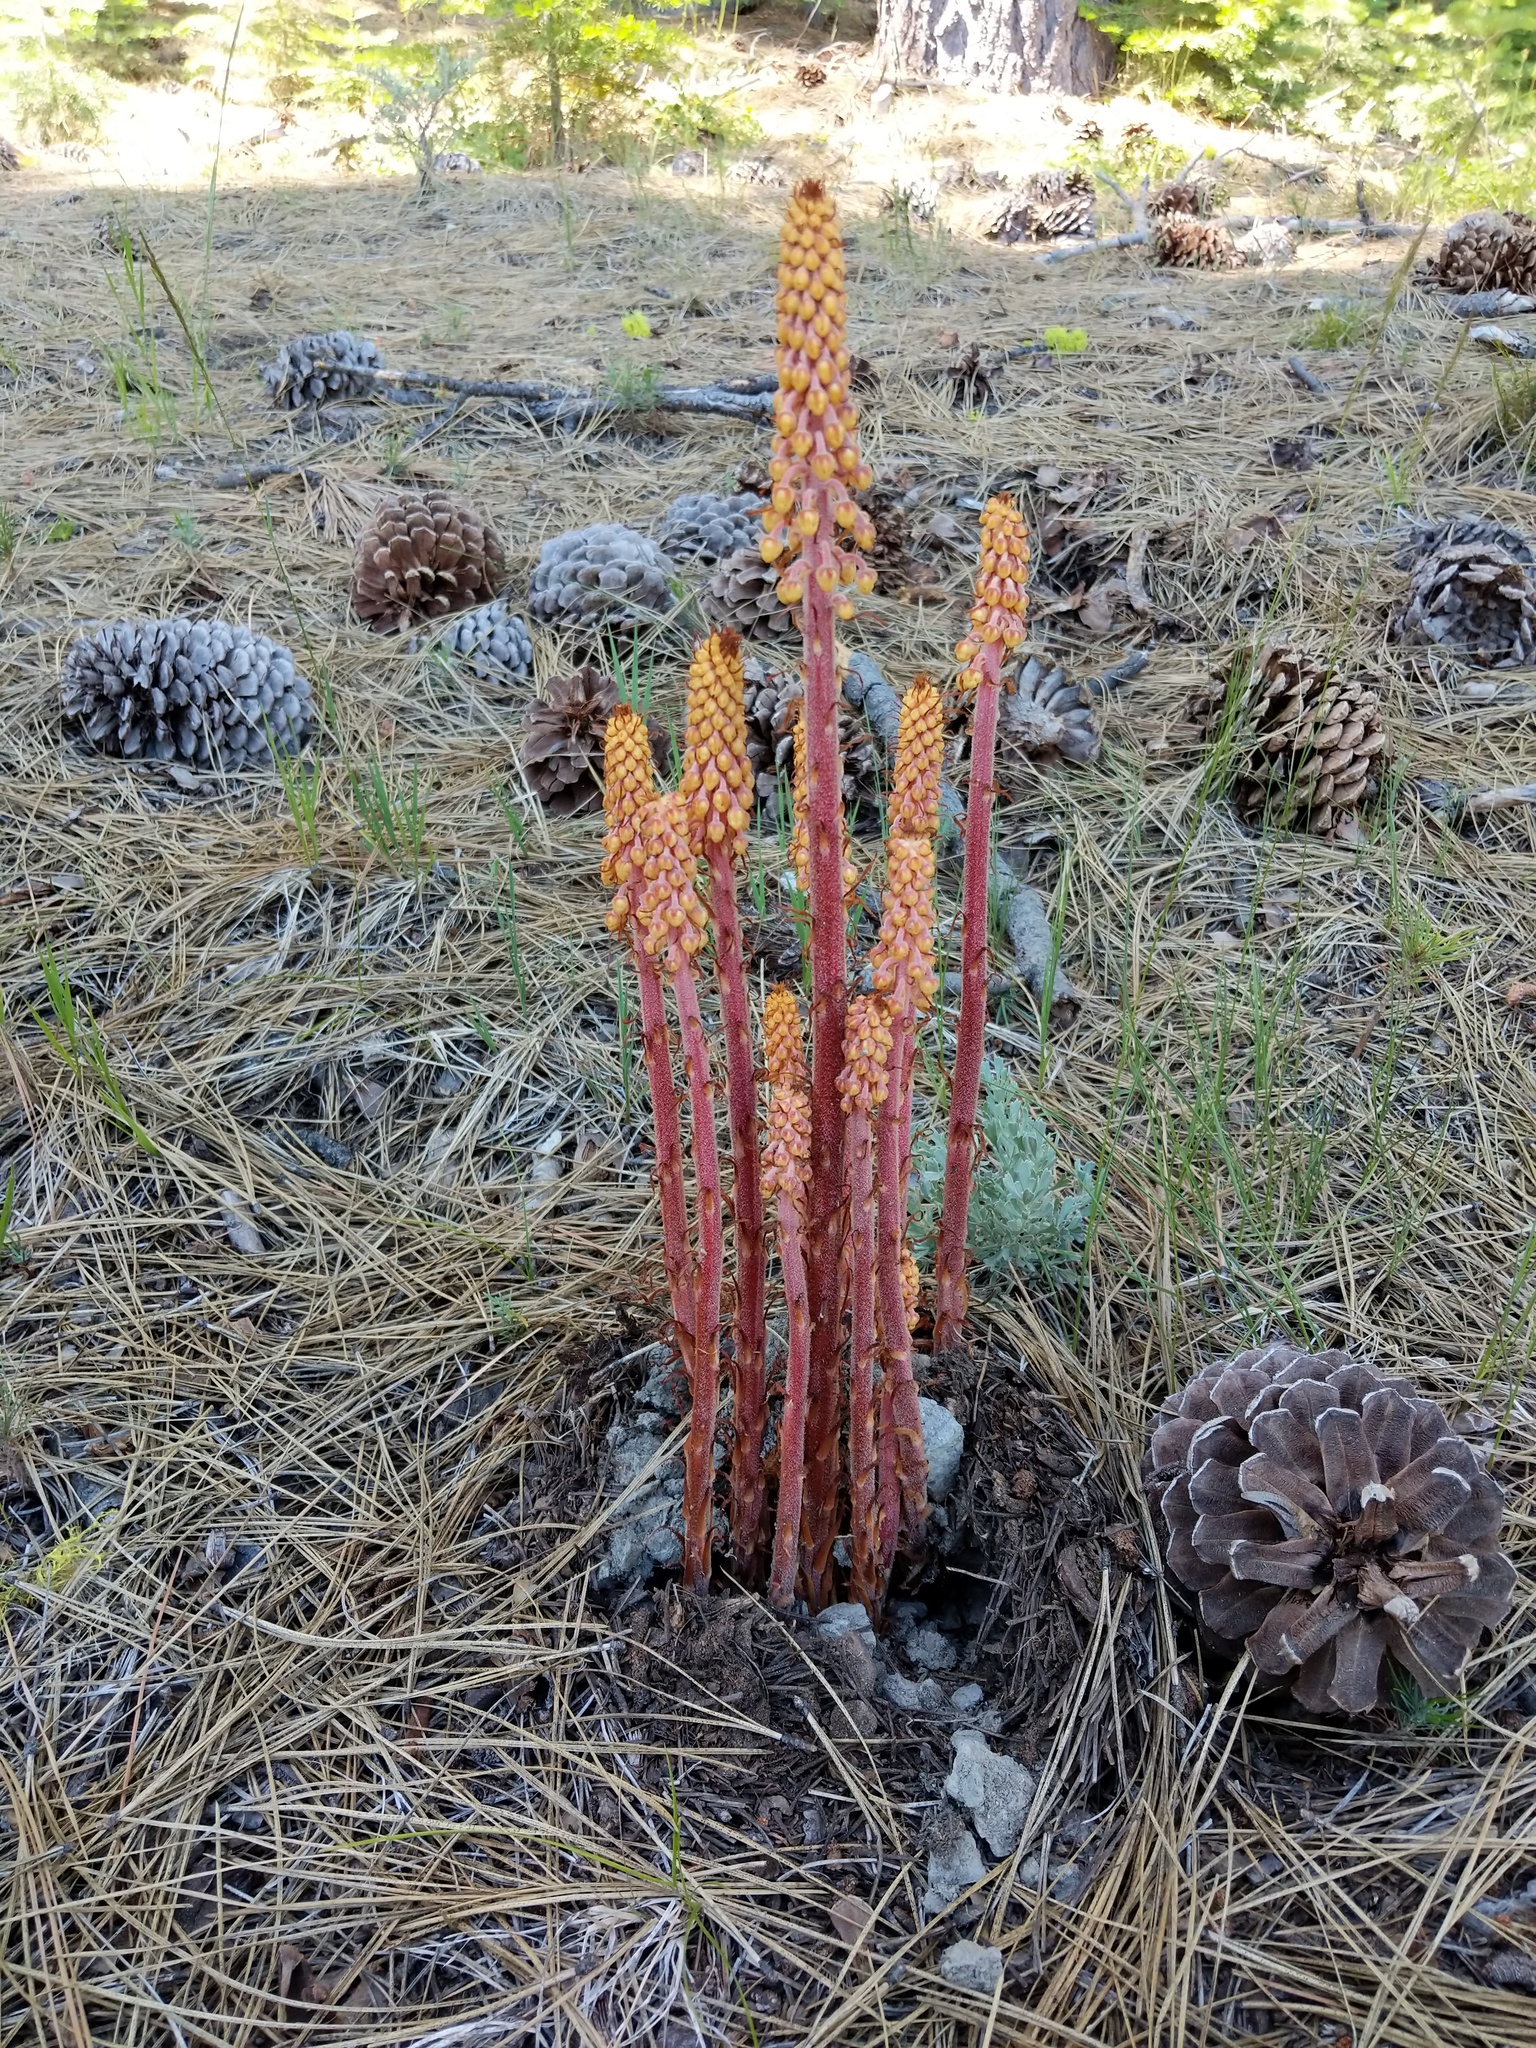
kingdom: Plantae
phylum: Tracheophyta
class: Magnoliopsida
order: Ericales
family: Ericaceae
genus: Pterospora
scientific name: Pterospora andromedea
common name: Giant bird's-nest
